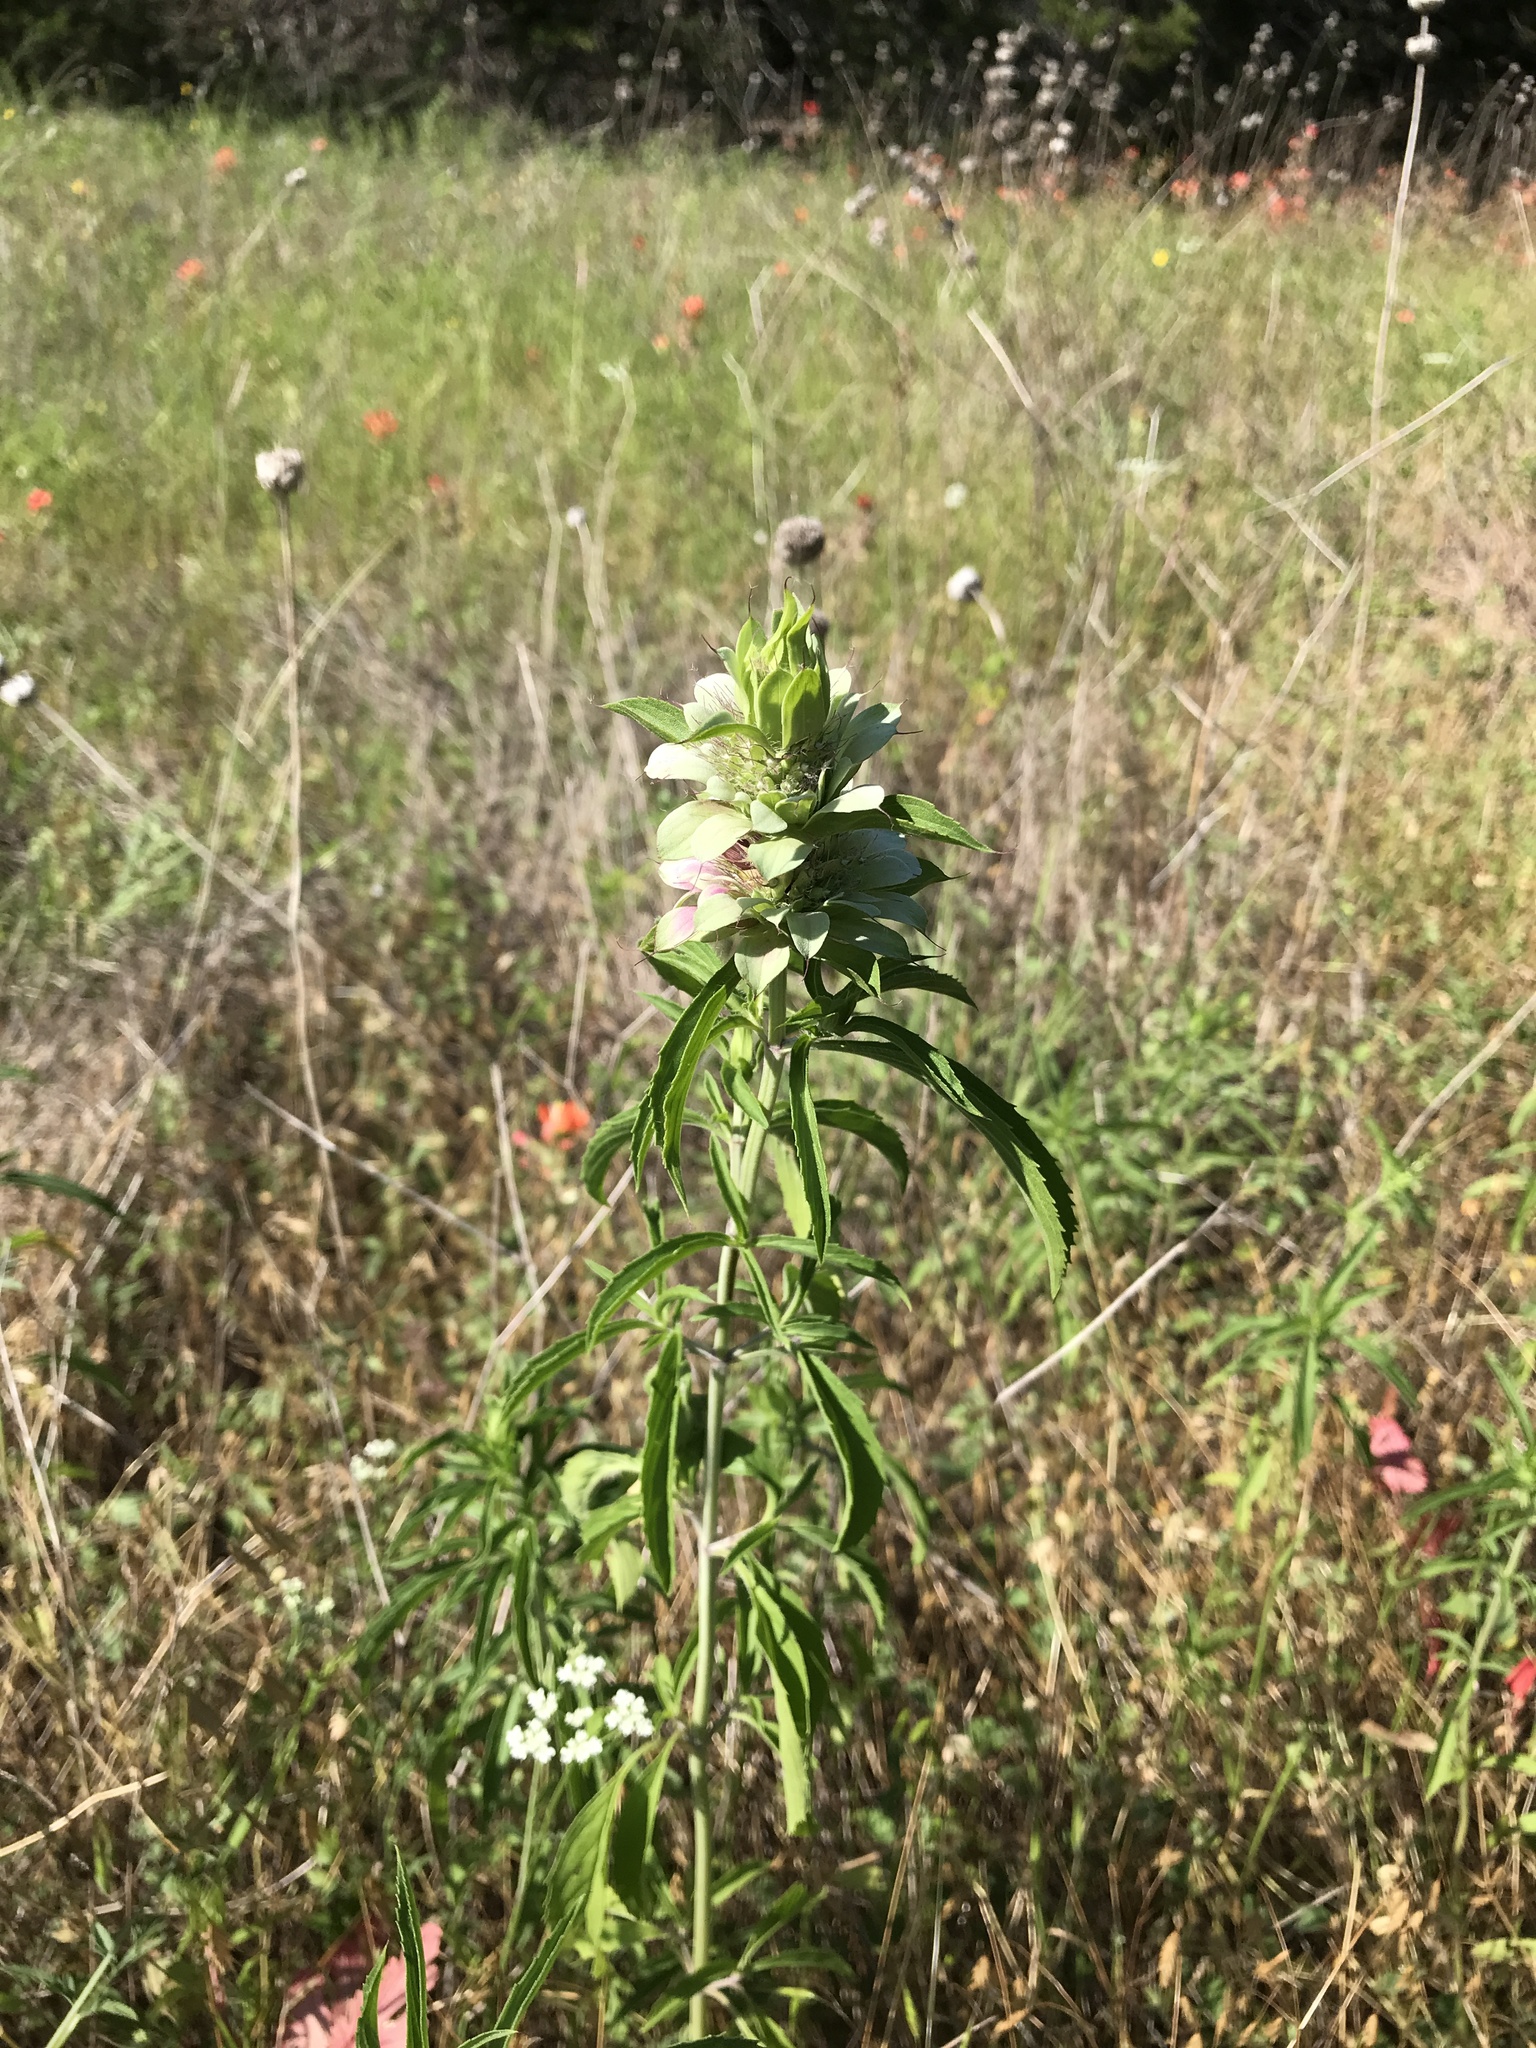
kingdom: Plantae
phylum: Tracheophyta
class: Magnoliopsida
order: Lamiales
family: Lamiaceae
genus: Monarda
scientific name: Monarda citriodora
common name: Lemon beebalm
